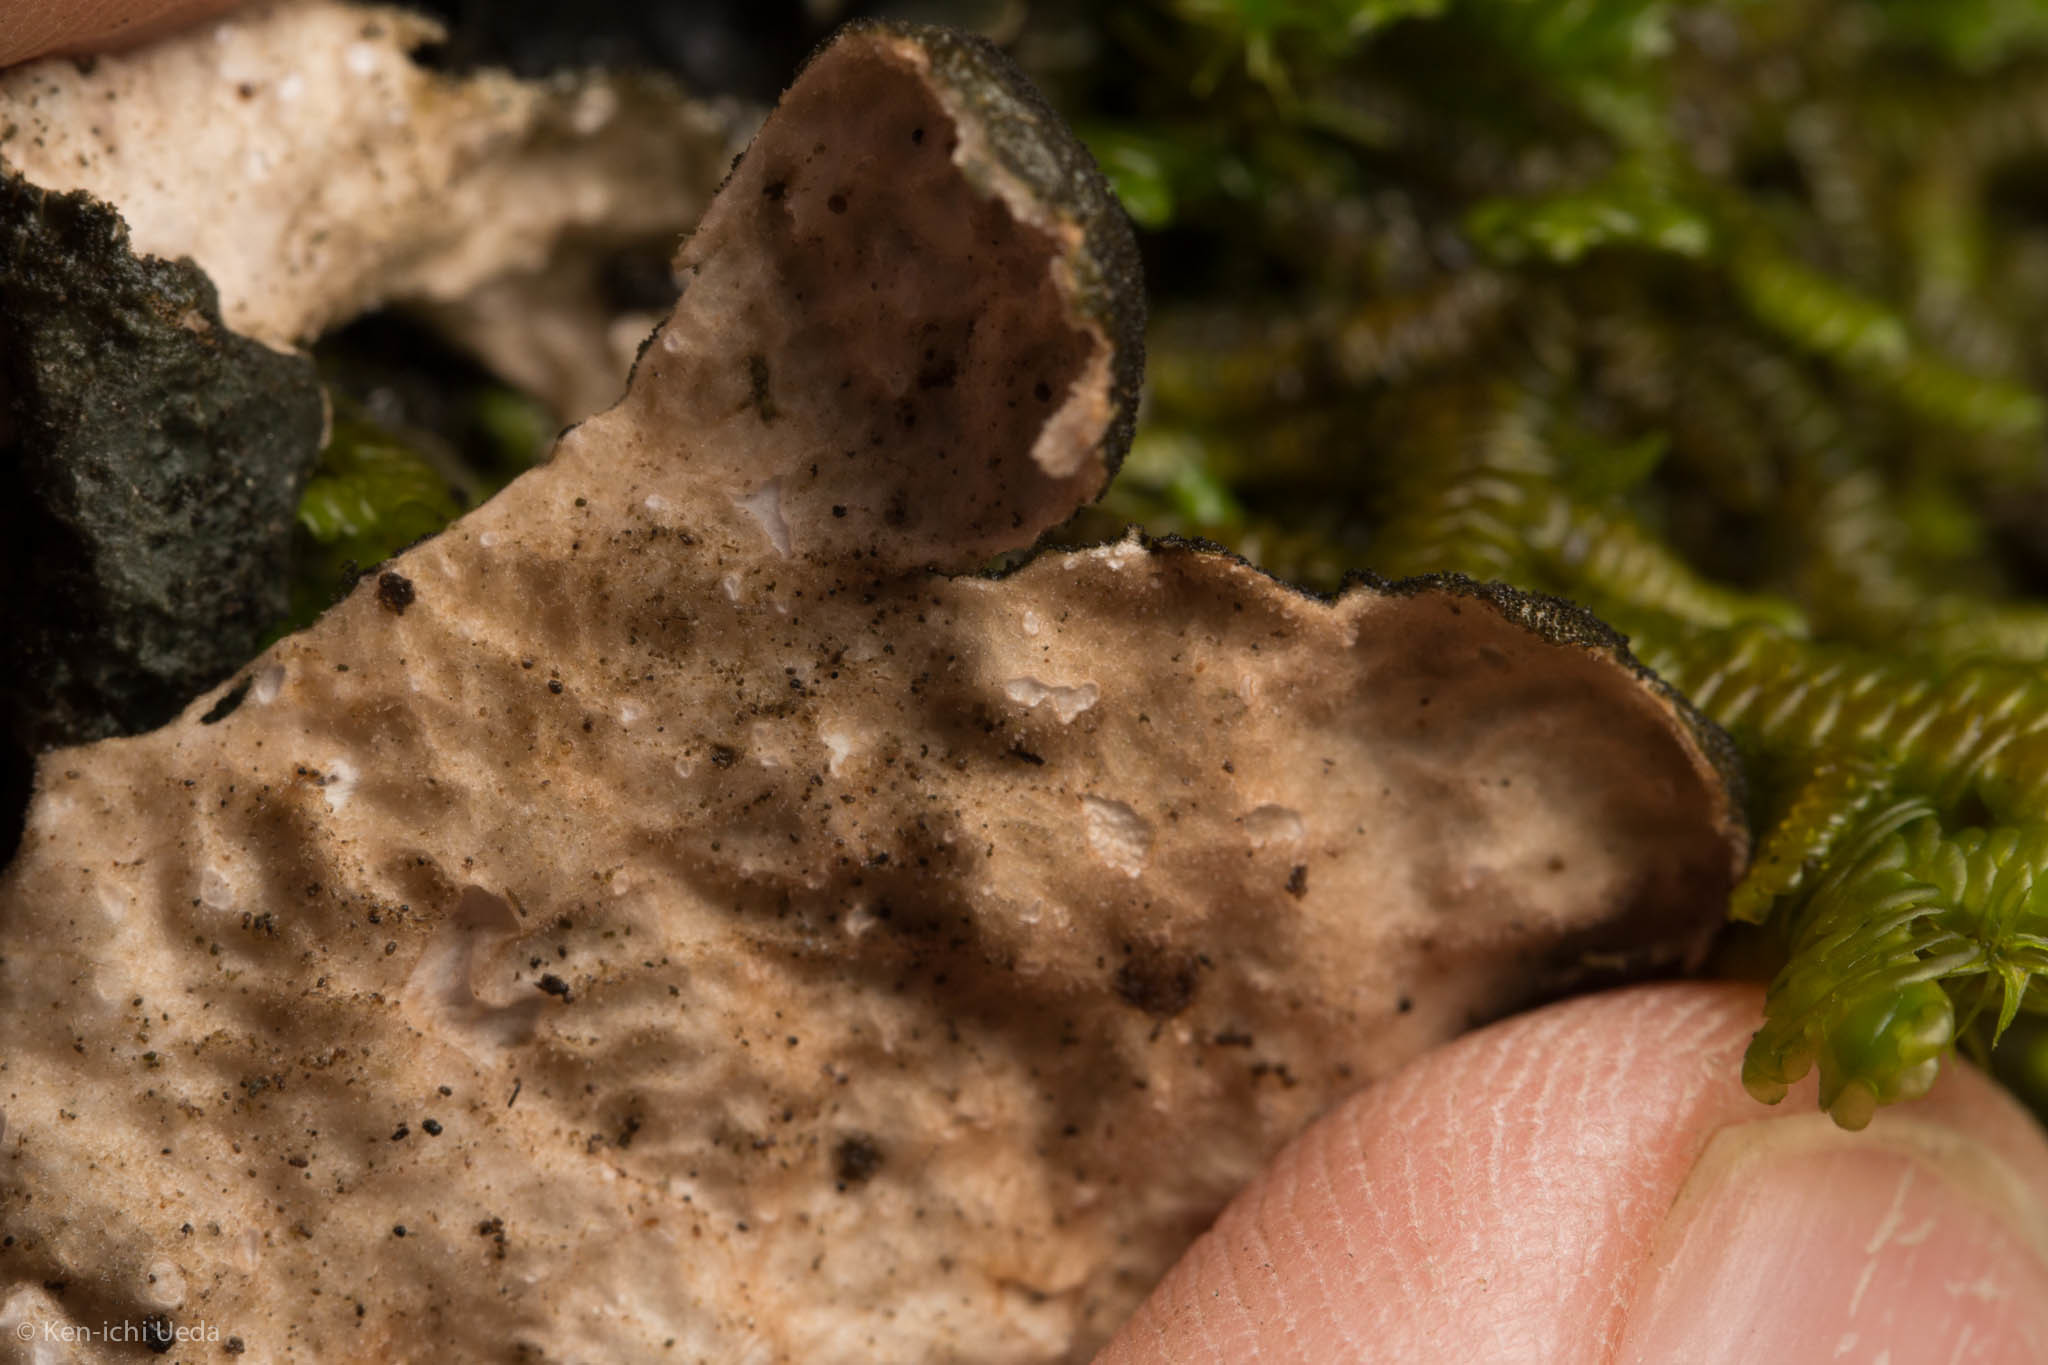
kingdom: Fungi
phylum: Ascomycota
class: Lecanoromycetes
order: Peltigerales
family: Lobariaceae
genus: Sticta
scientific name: Sticta fuliginosa
